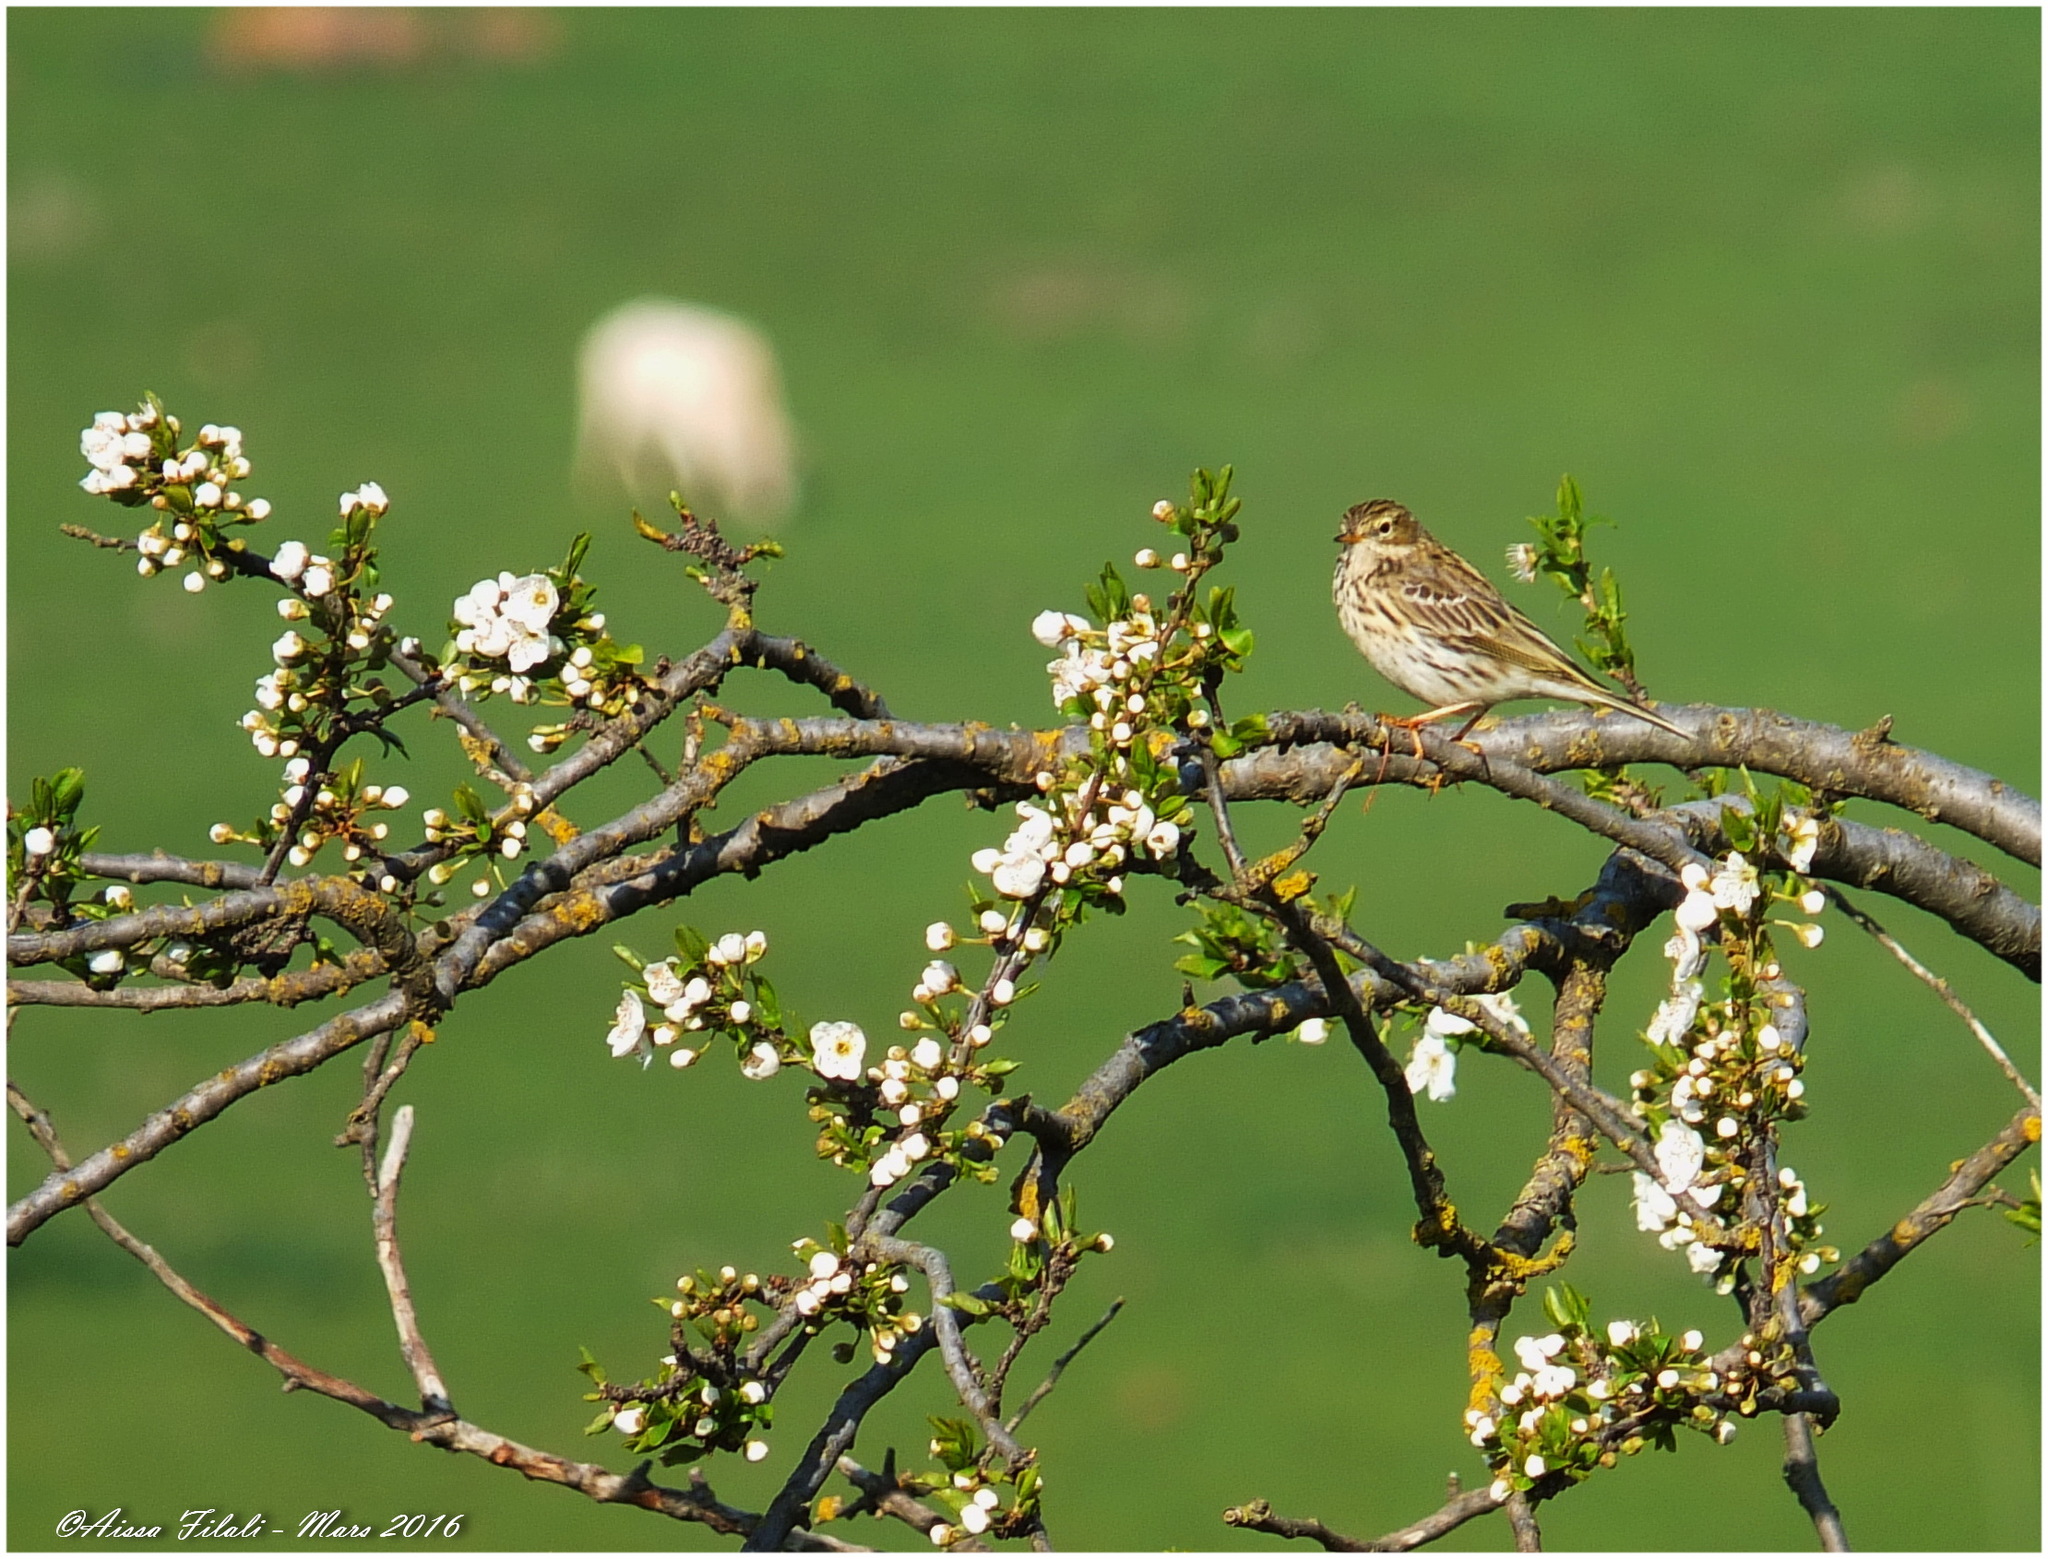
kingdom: Animalia
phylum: Chordata
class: Aves
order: Passeriformes
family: Motacillidae
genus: Anthus
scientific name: Anthus pratensis
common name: Meadow pipit
